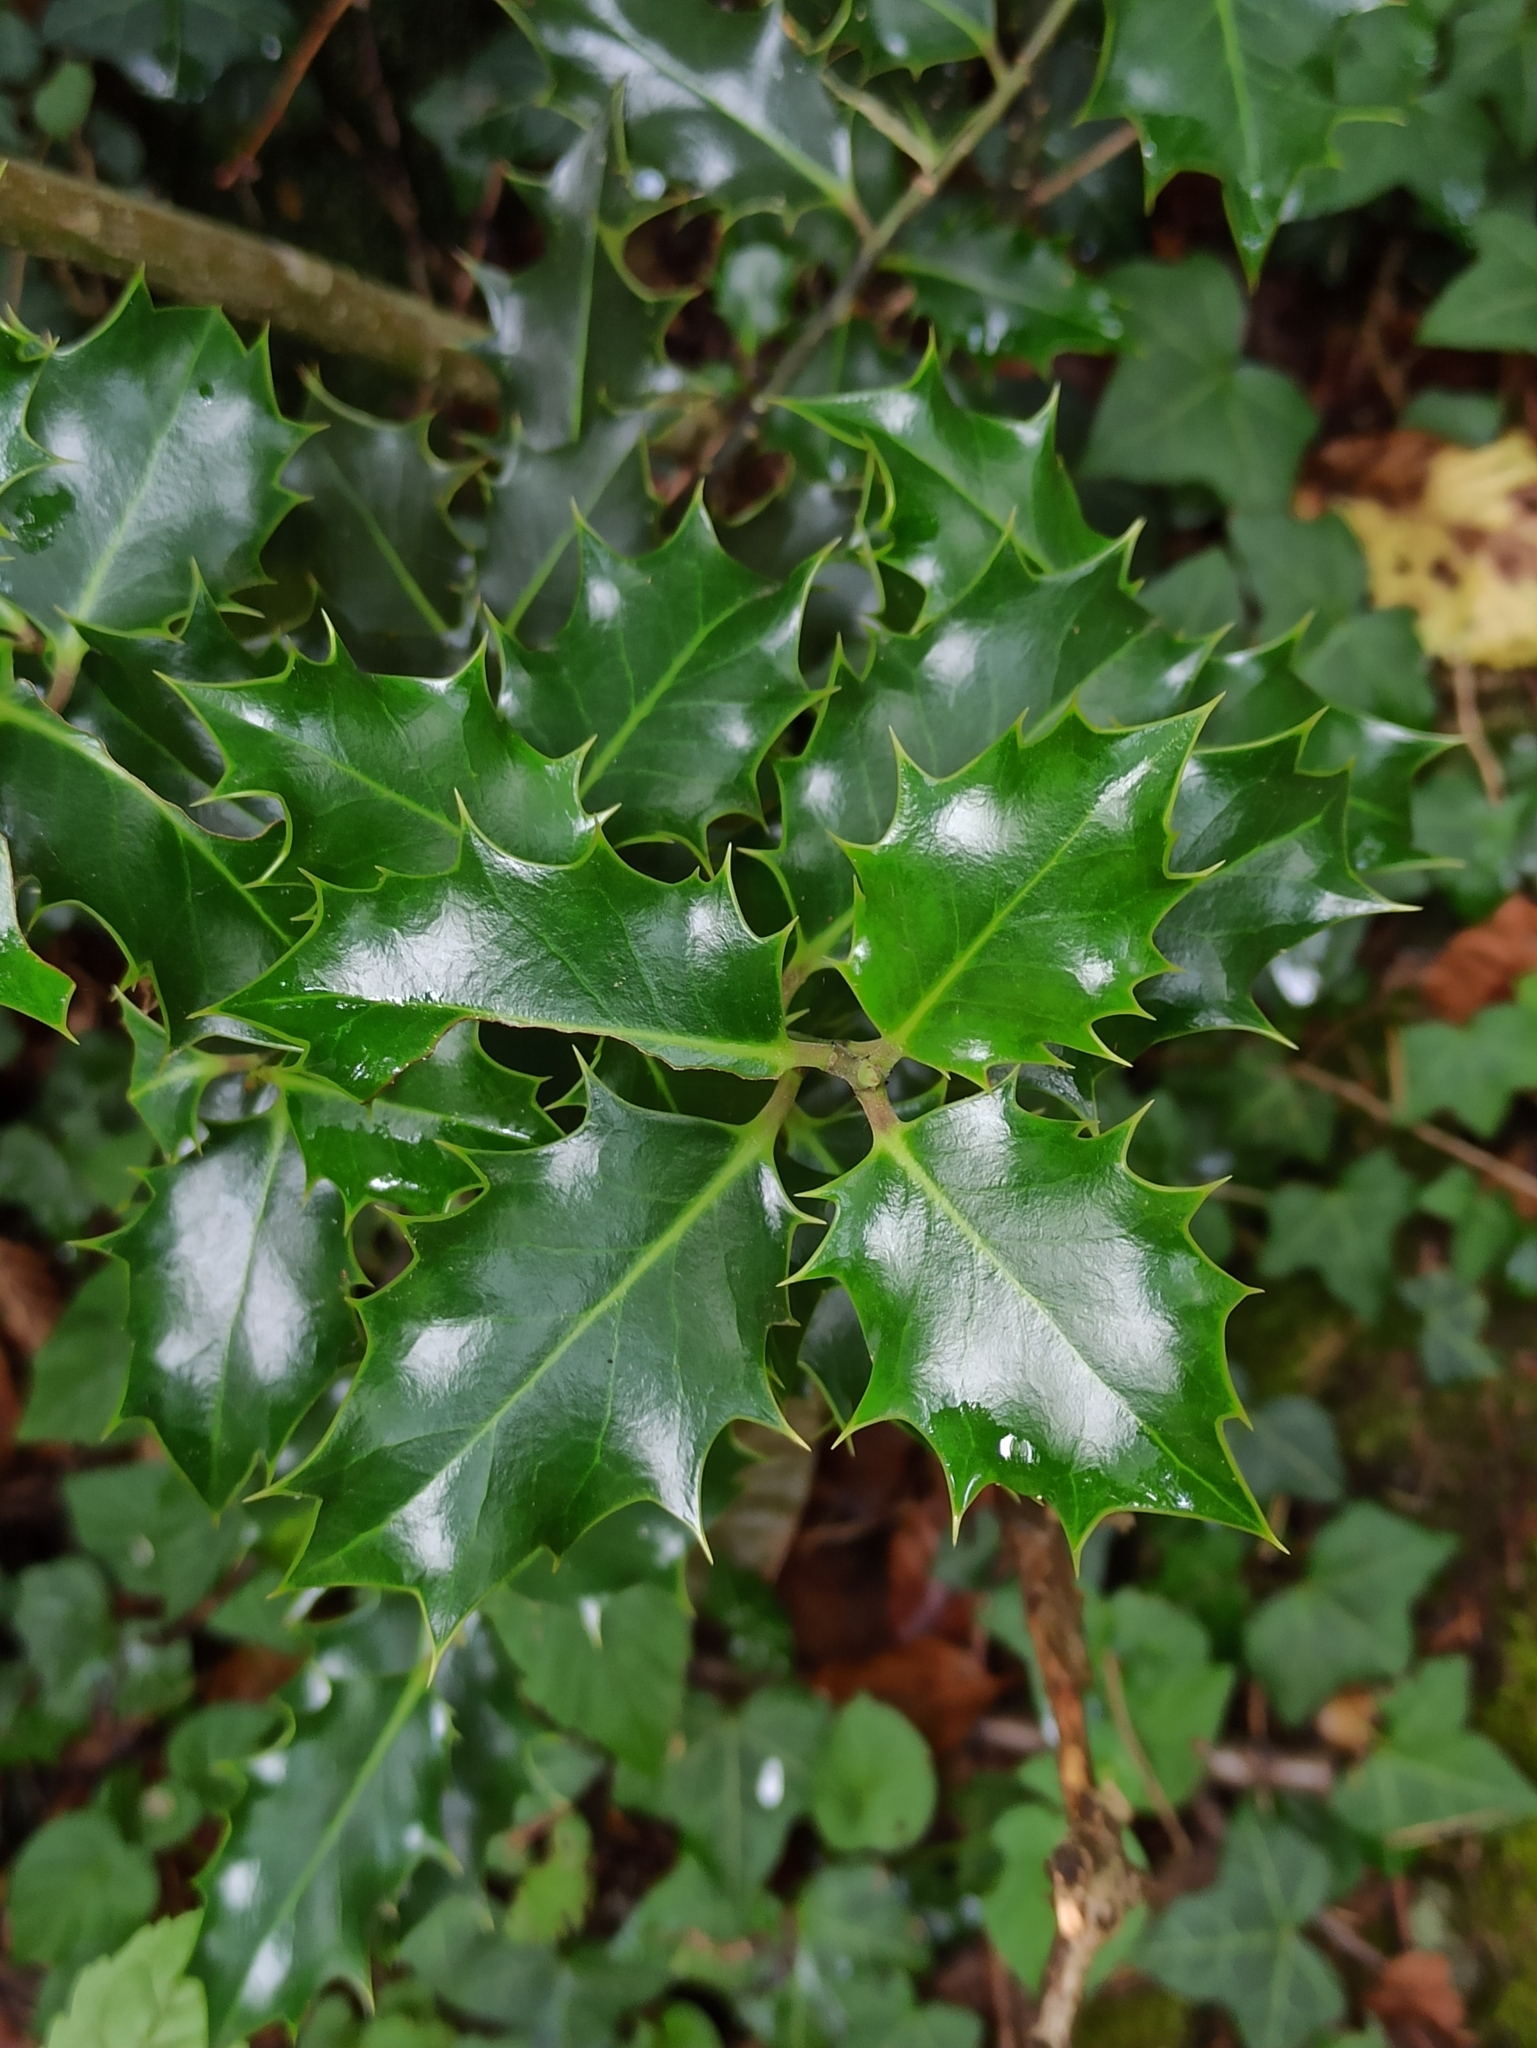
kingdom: Plantae
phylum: Tracheophyta
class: Magnoliopsida
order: Aquifoliales
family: Aquifoliaceae
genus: Ilex
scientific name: Ilex aquifolium
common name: English holly
